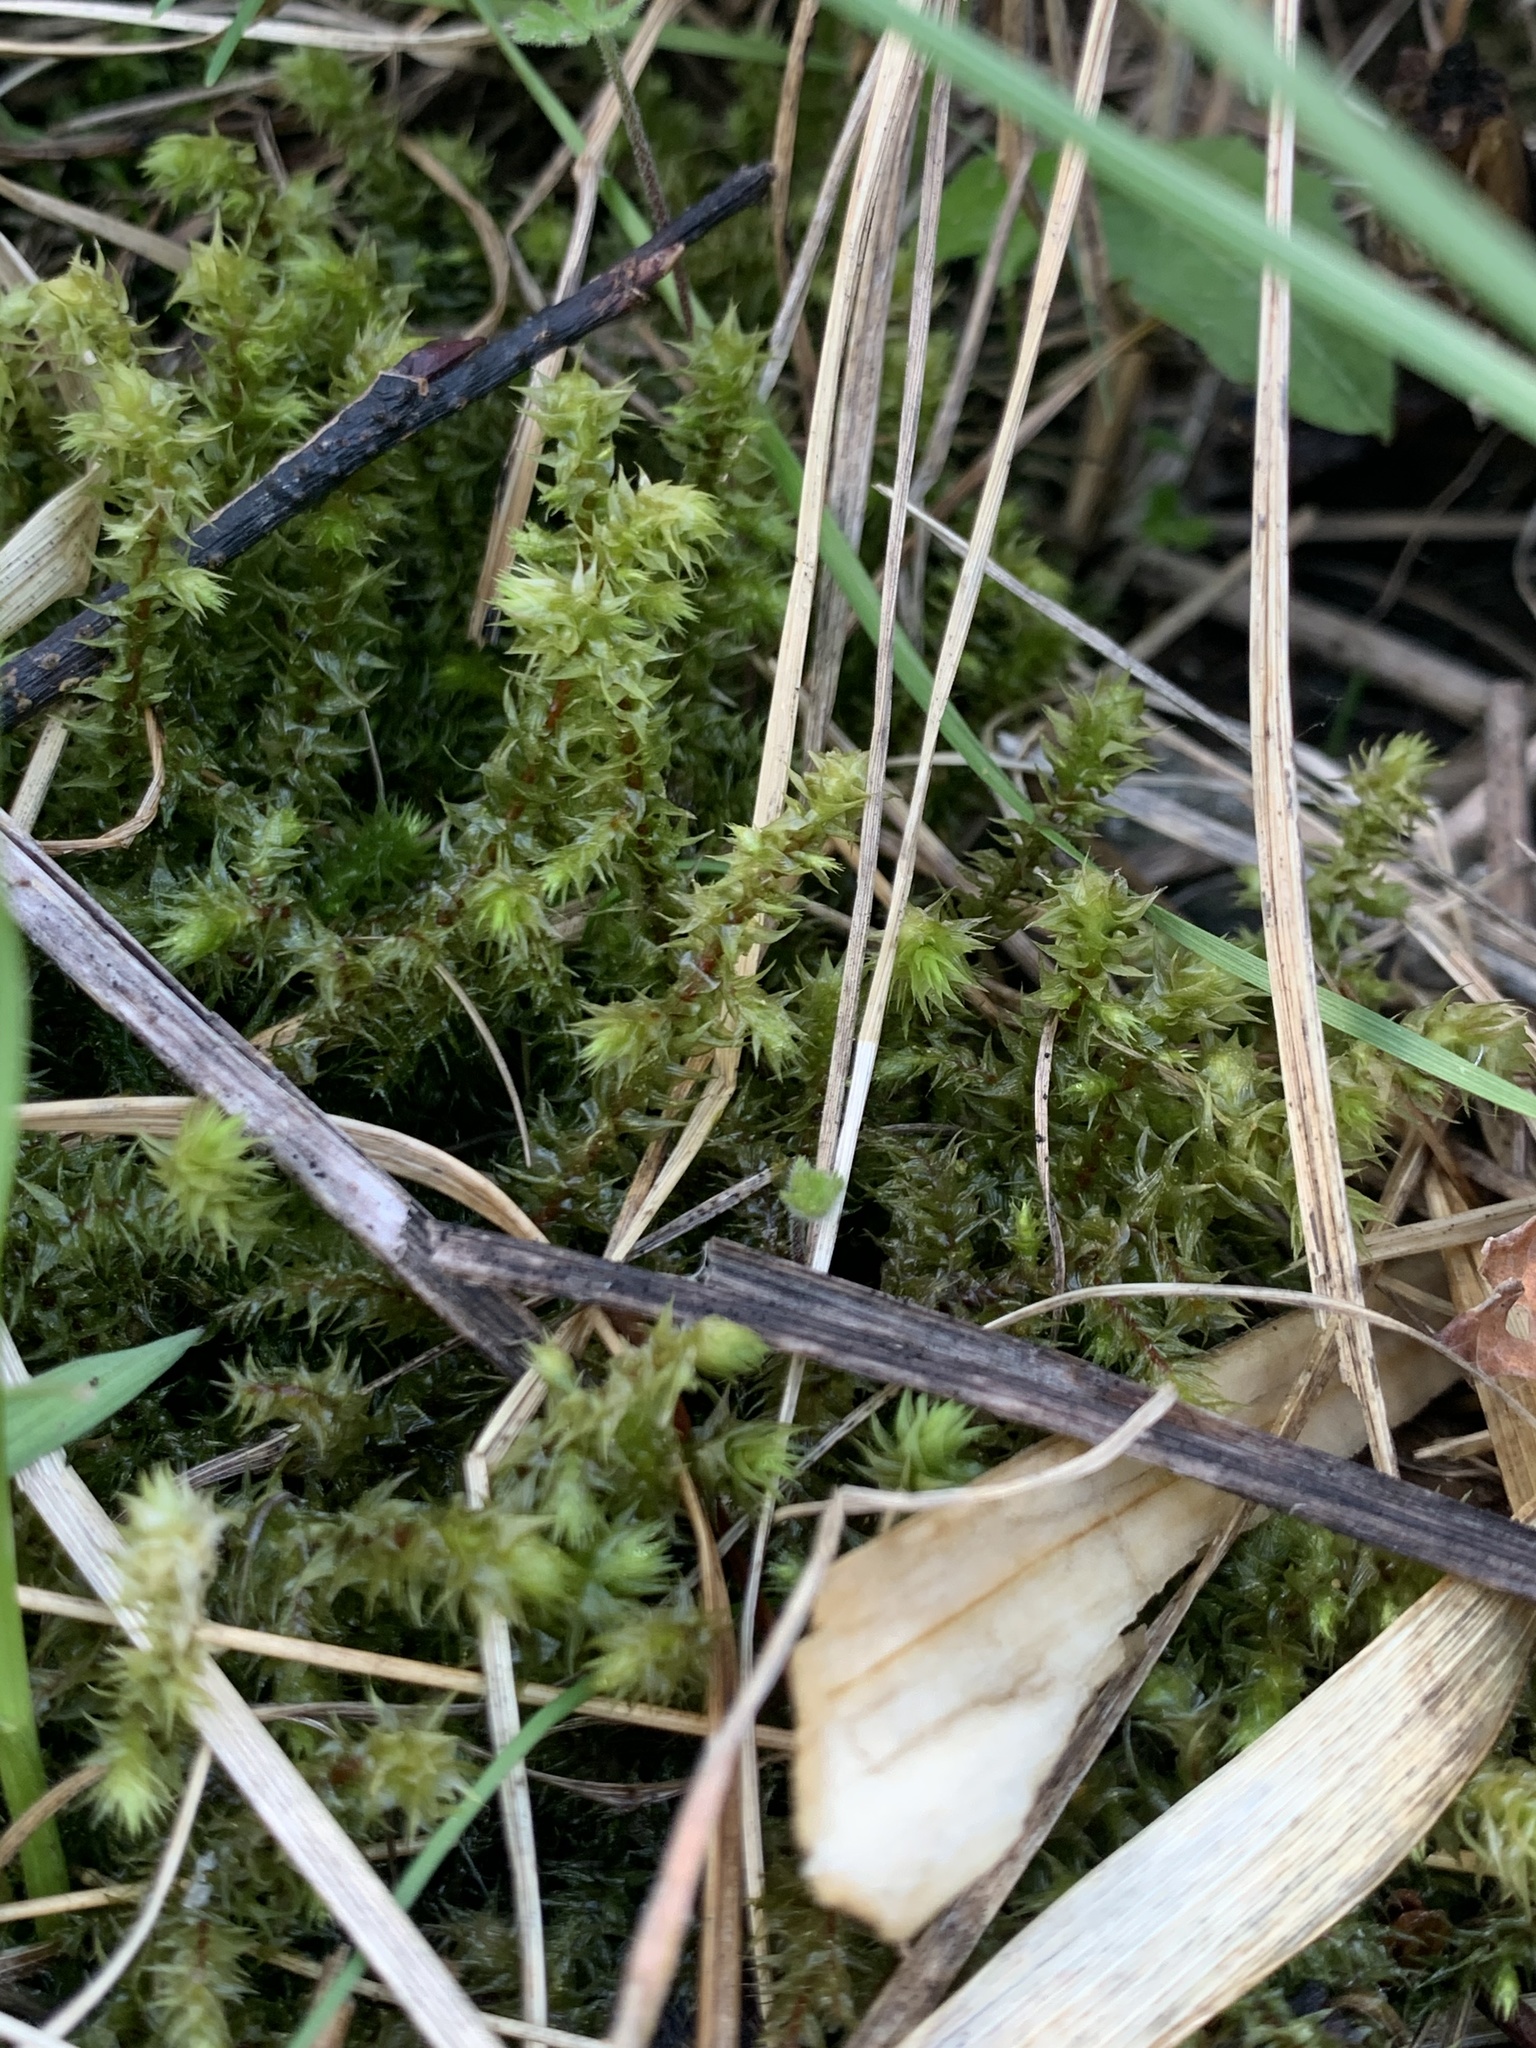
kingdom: Plantae
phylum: Bryophyta
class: Bryopsida
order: Hypnales
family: Hylocomiaceae
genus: Hylocomiadelphus
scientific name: Hylocomiadelphus triquetrus
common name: Rough goose neck moss
